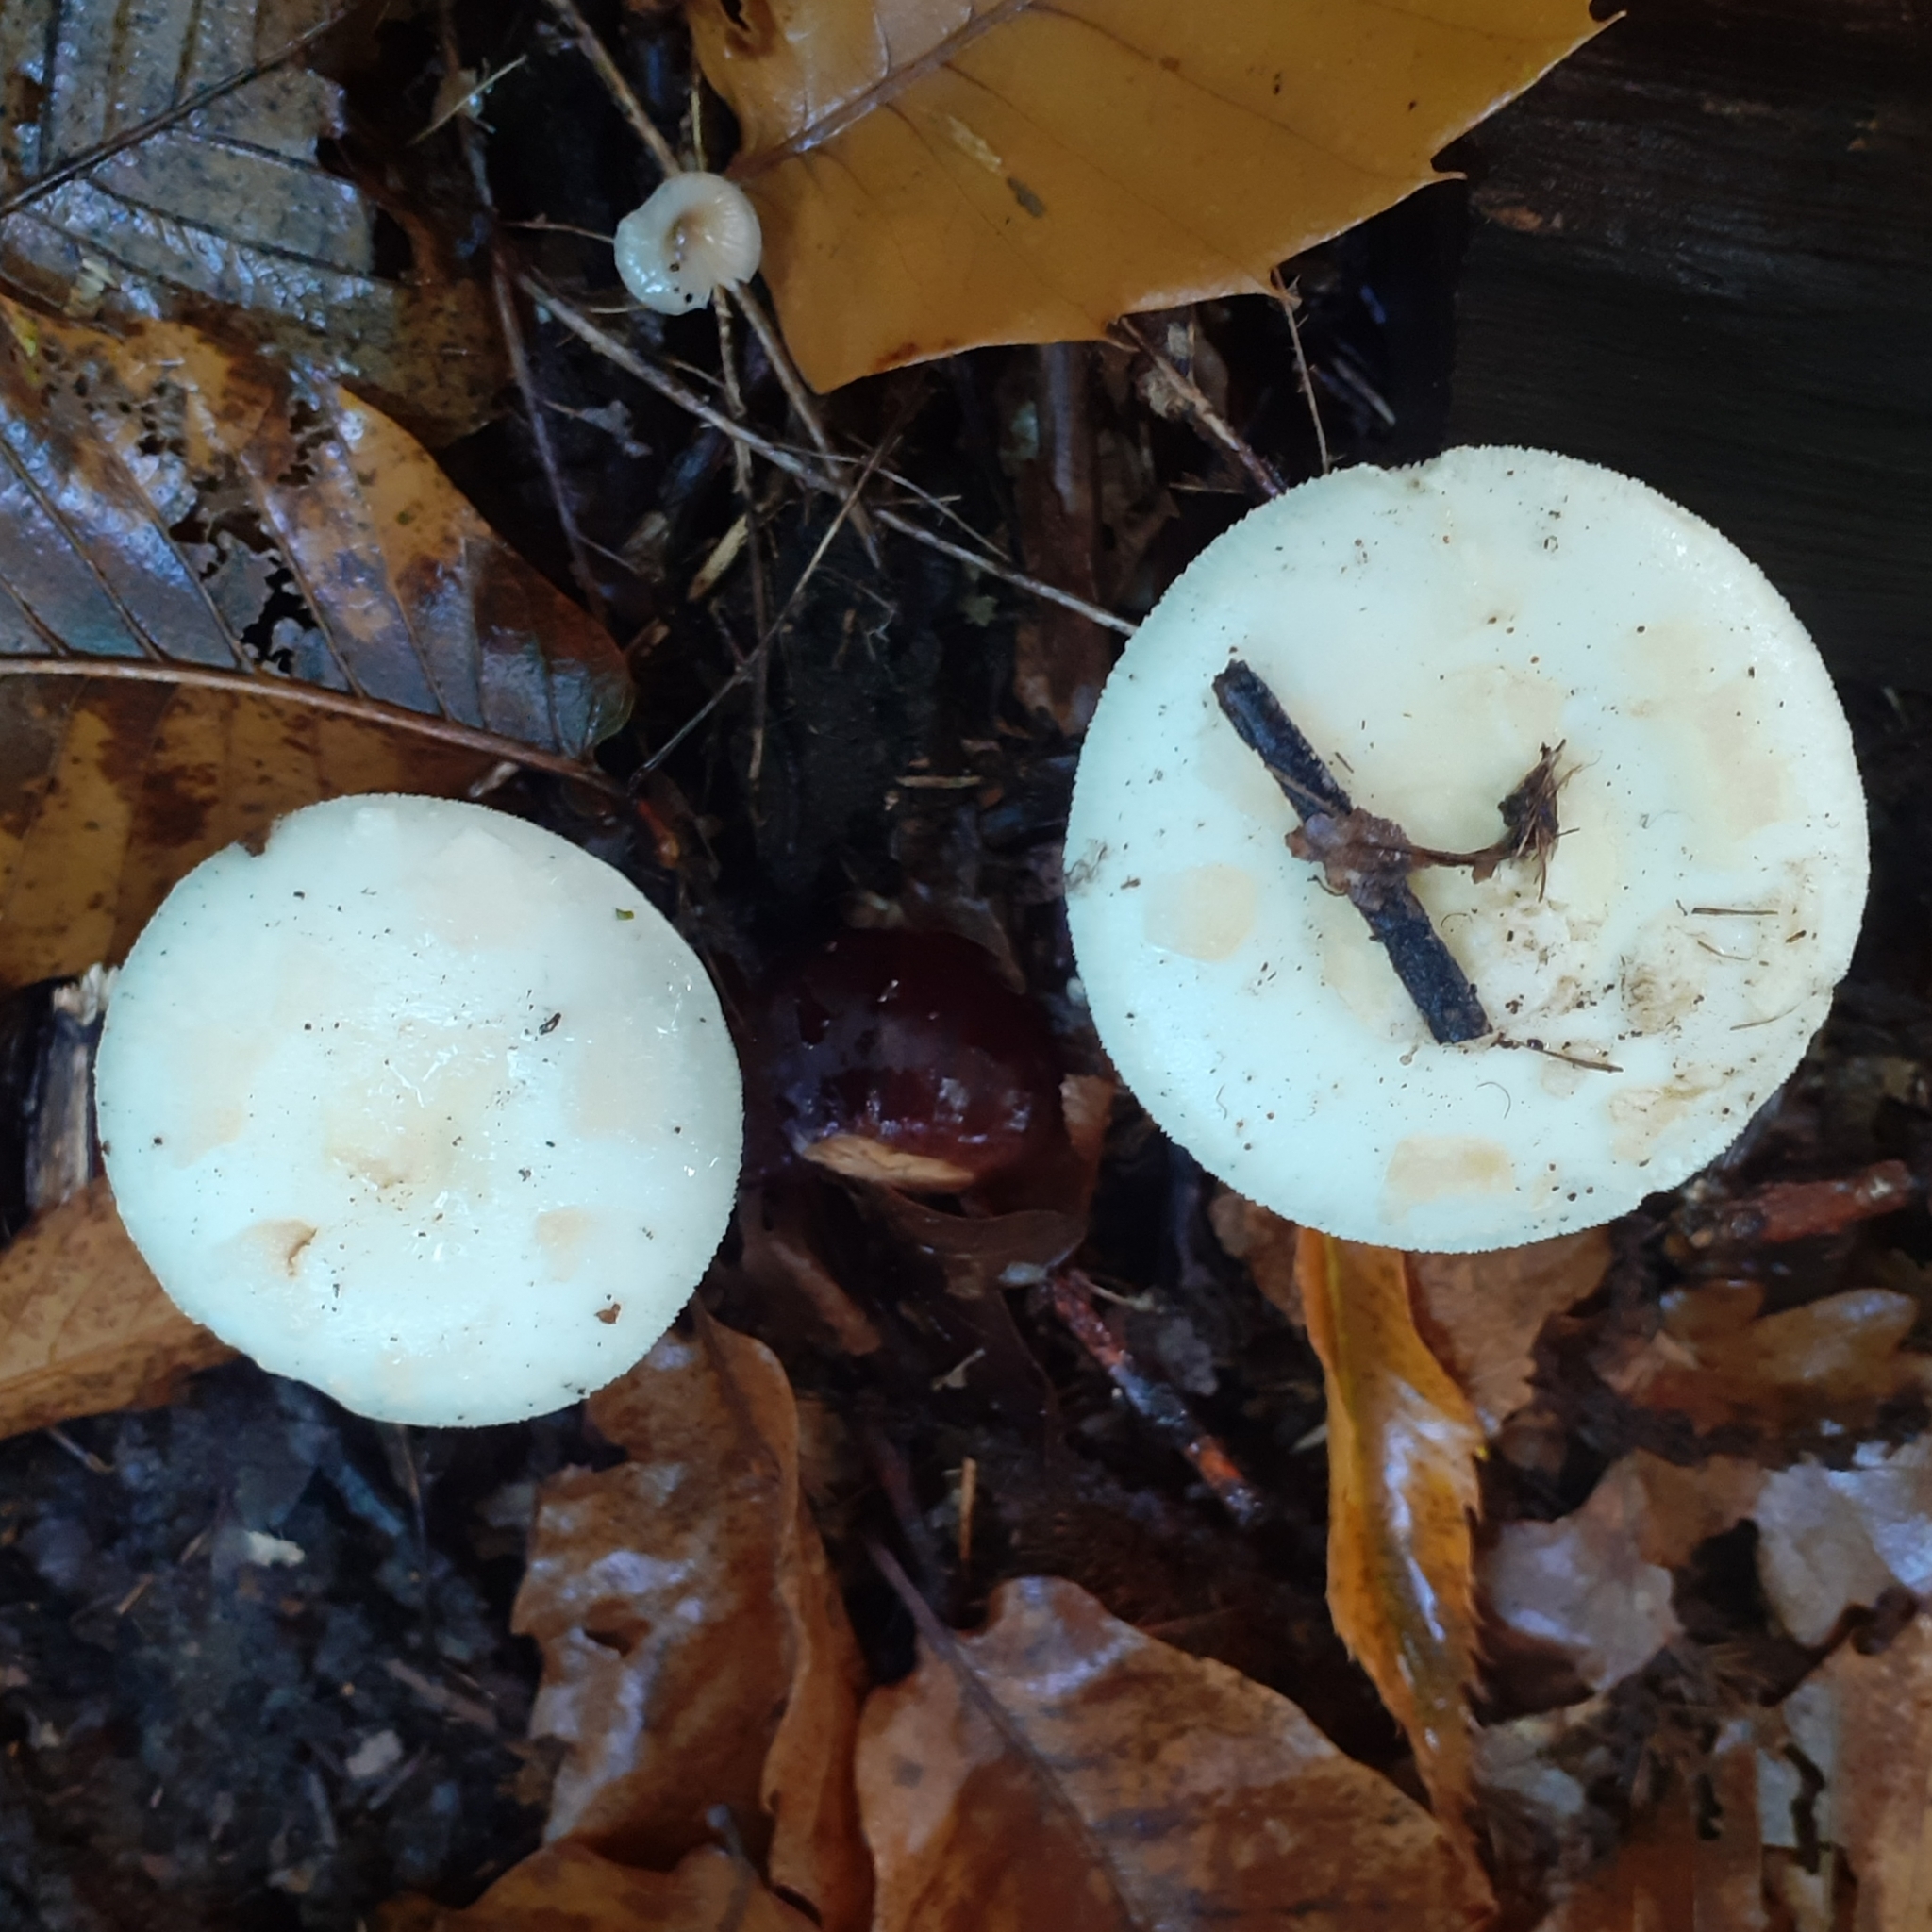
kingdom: Fungi
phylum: Basidiomycota
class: Agaricomycetes
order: Agaricales
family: Amanitaceae
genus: Amanita
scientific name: Amanita citrina
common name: False death-cap
